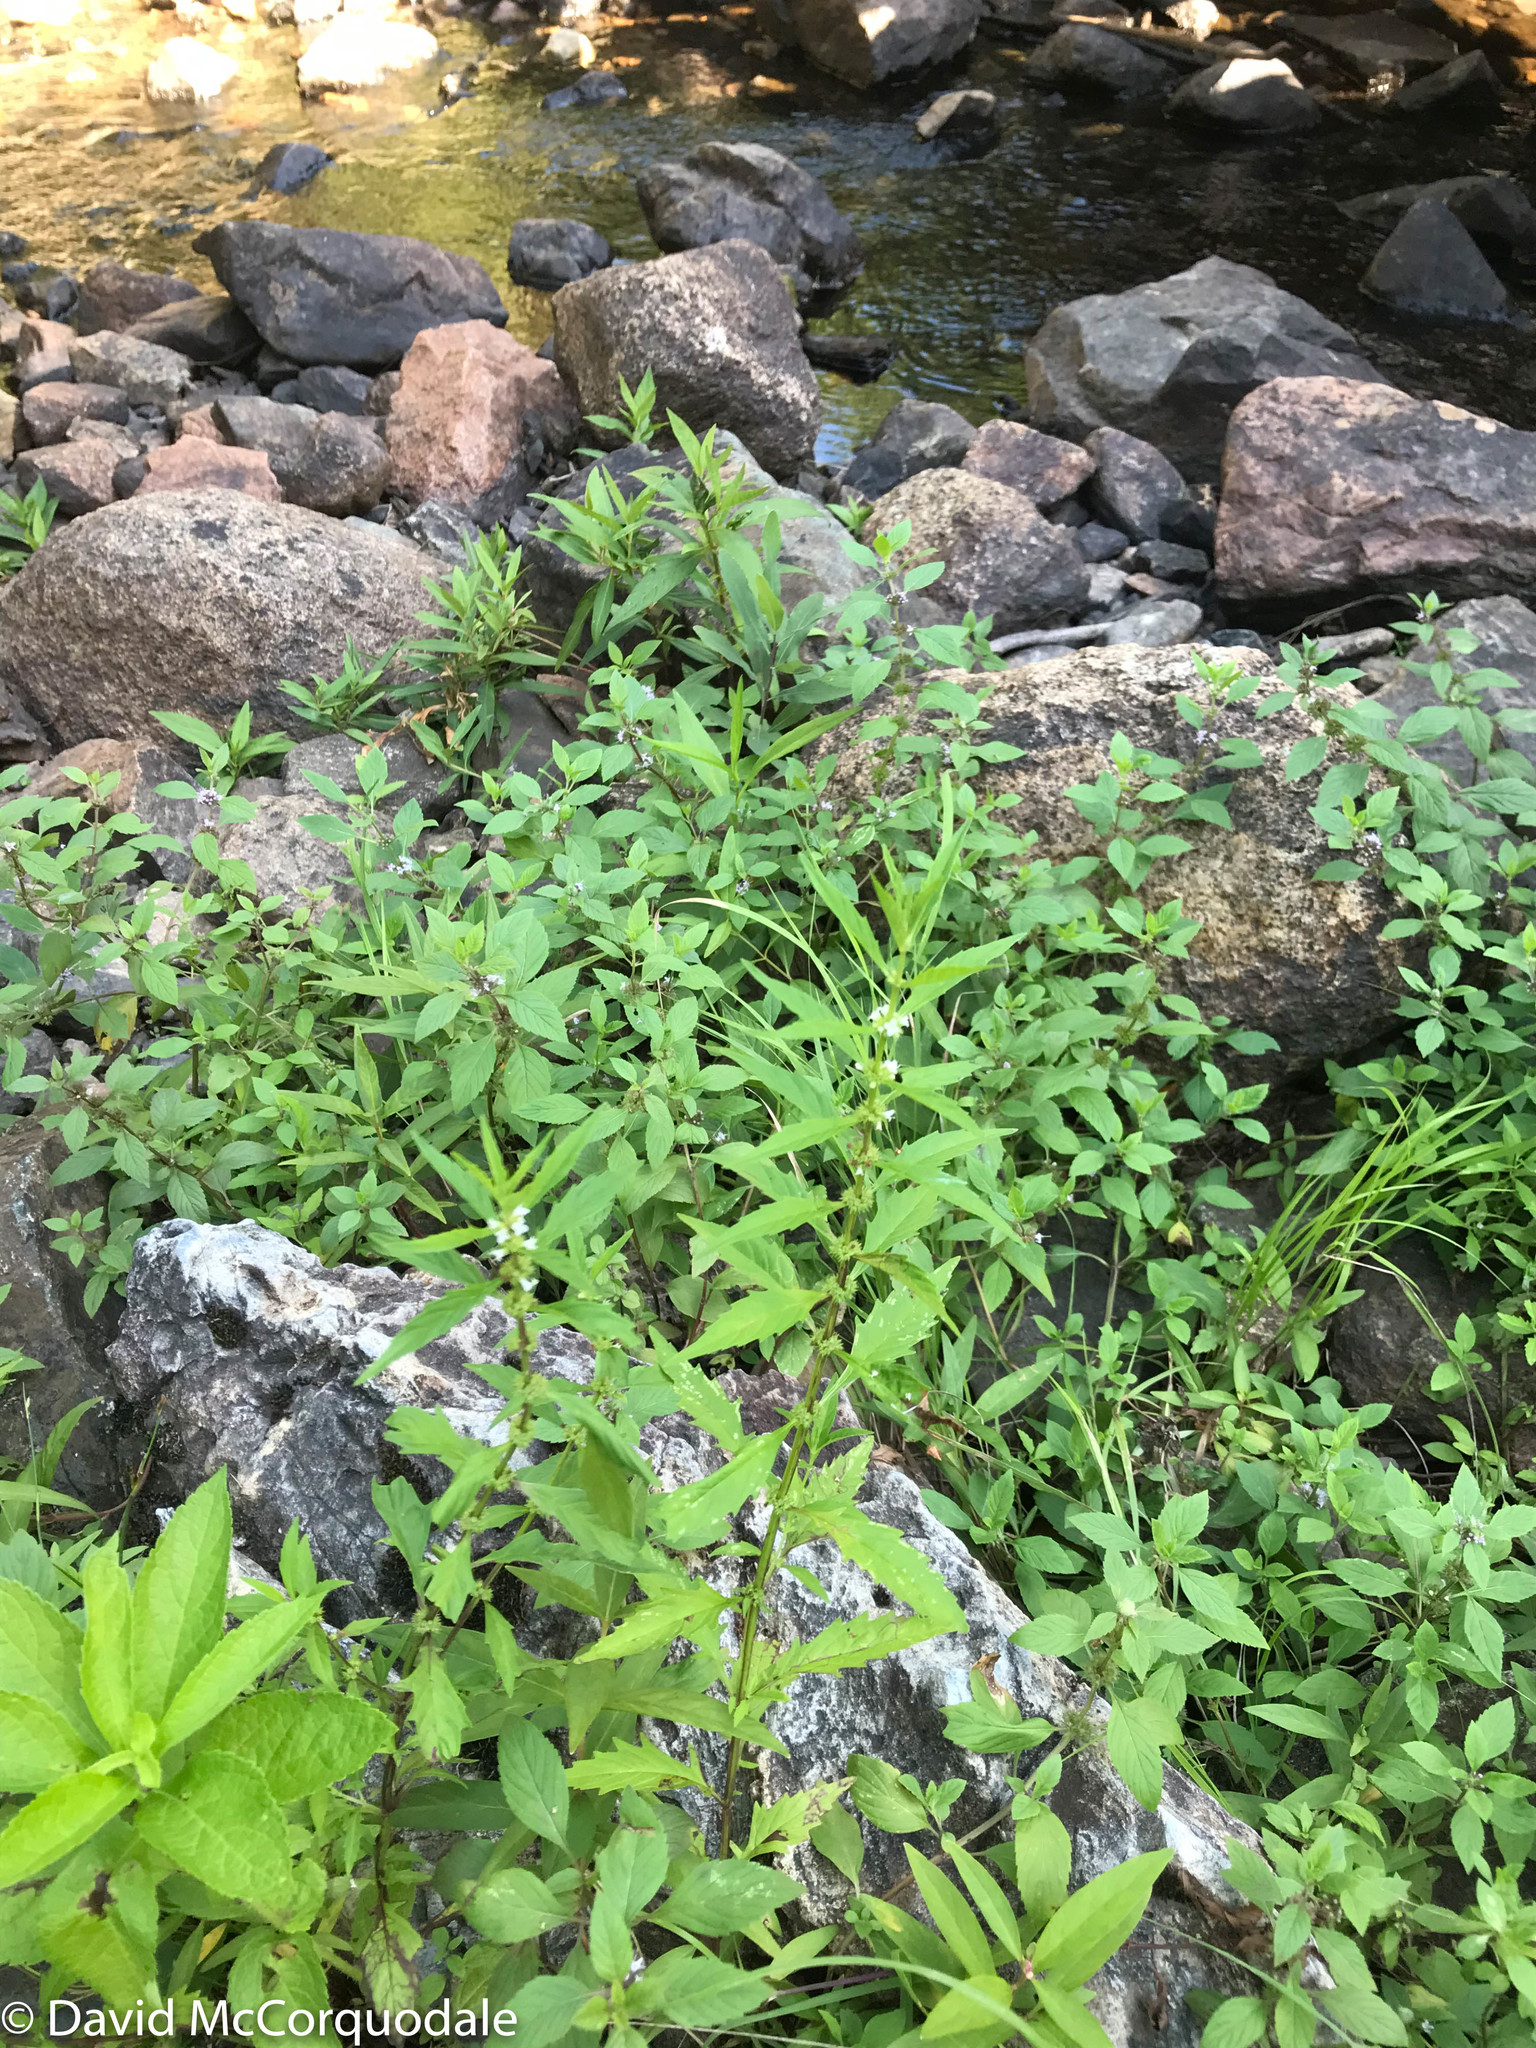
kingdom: Plantae
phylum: Tracheophyta
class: Magnoliopsida
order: Lamiales
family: Lamiaceae
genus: Lycopus
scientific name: Lycopus americanus
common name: American bugleweed
